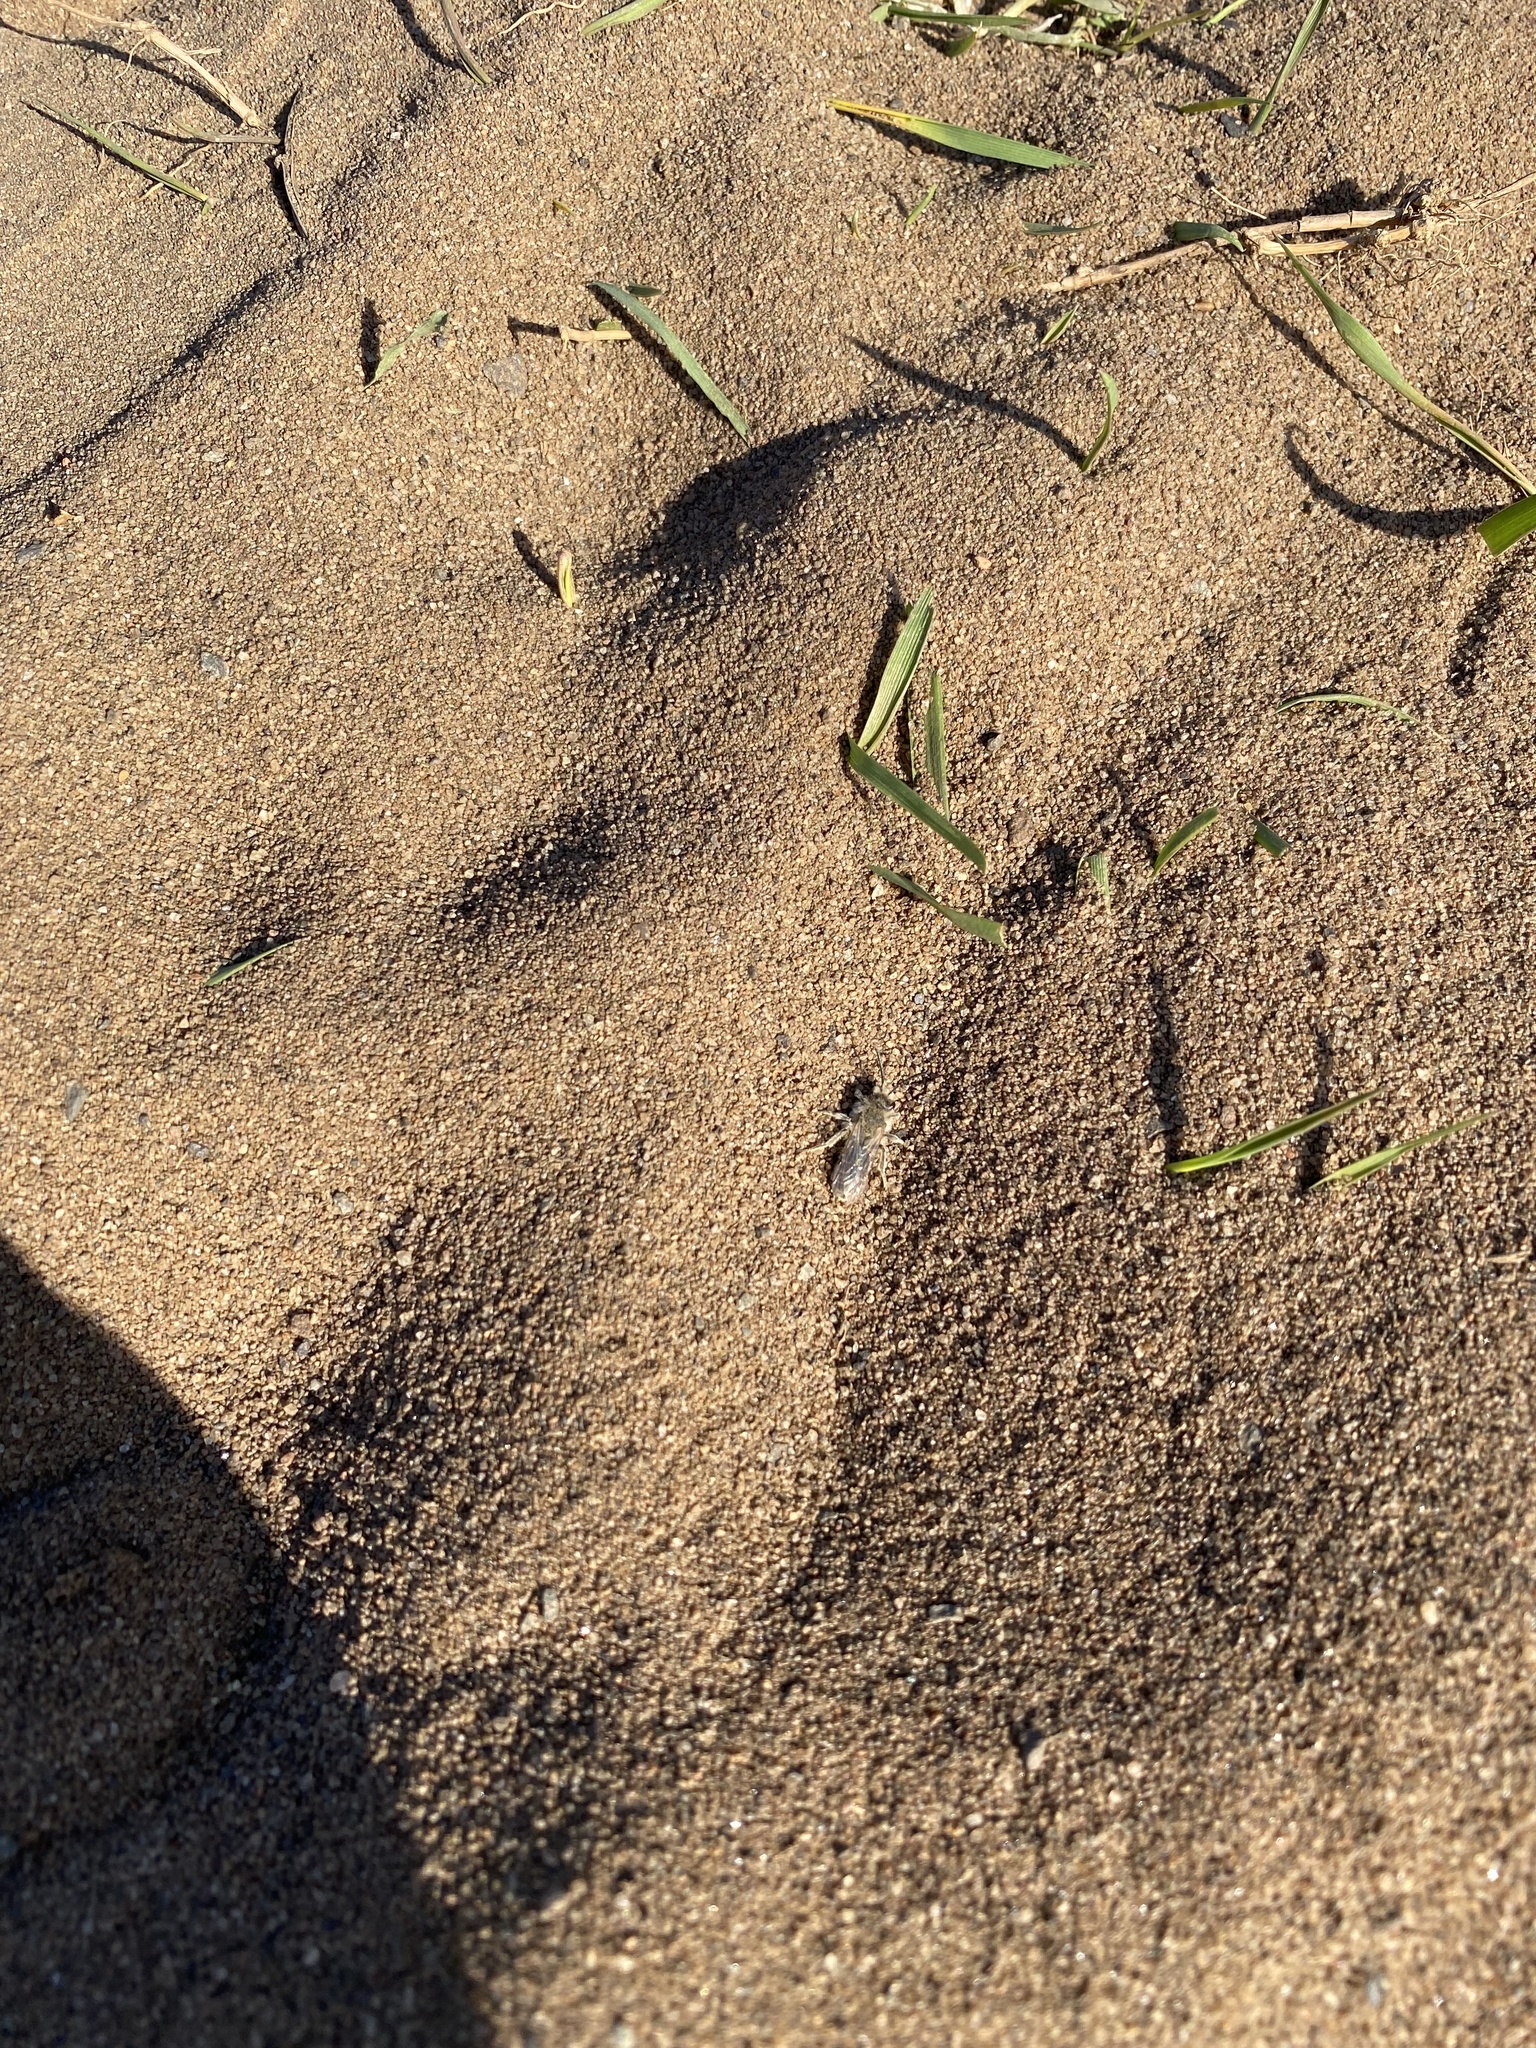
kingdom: Animalia
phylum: Arthropoda
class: Insecta
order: Hymenoptera
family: Andrenidae
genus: Andrena
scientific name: Andrena barbilabris
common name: Sandpit mining bee
